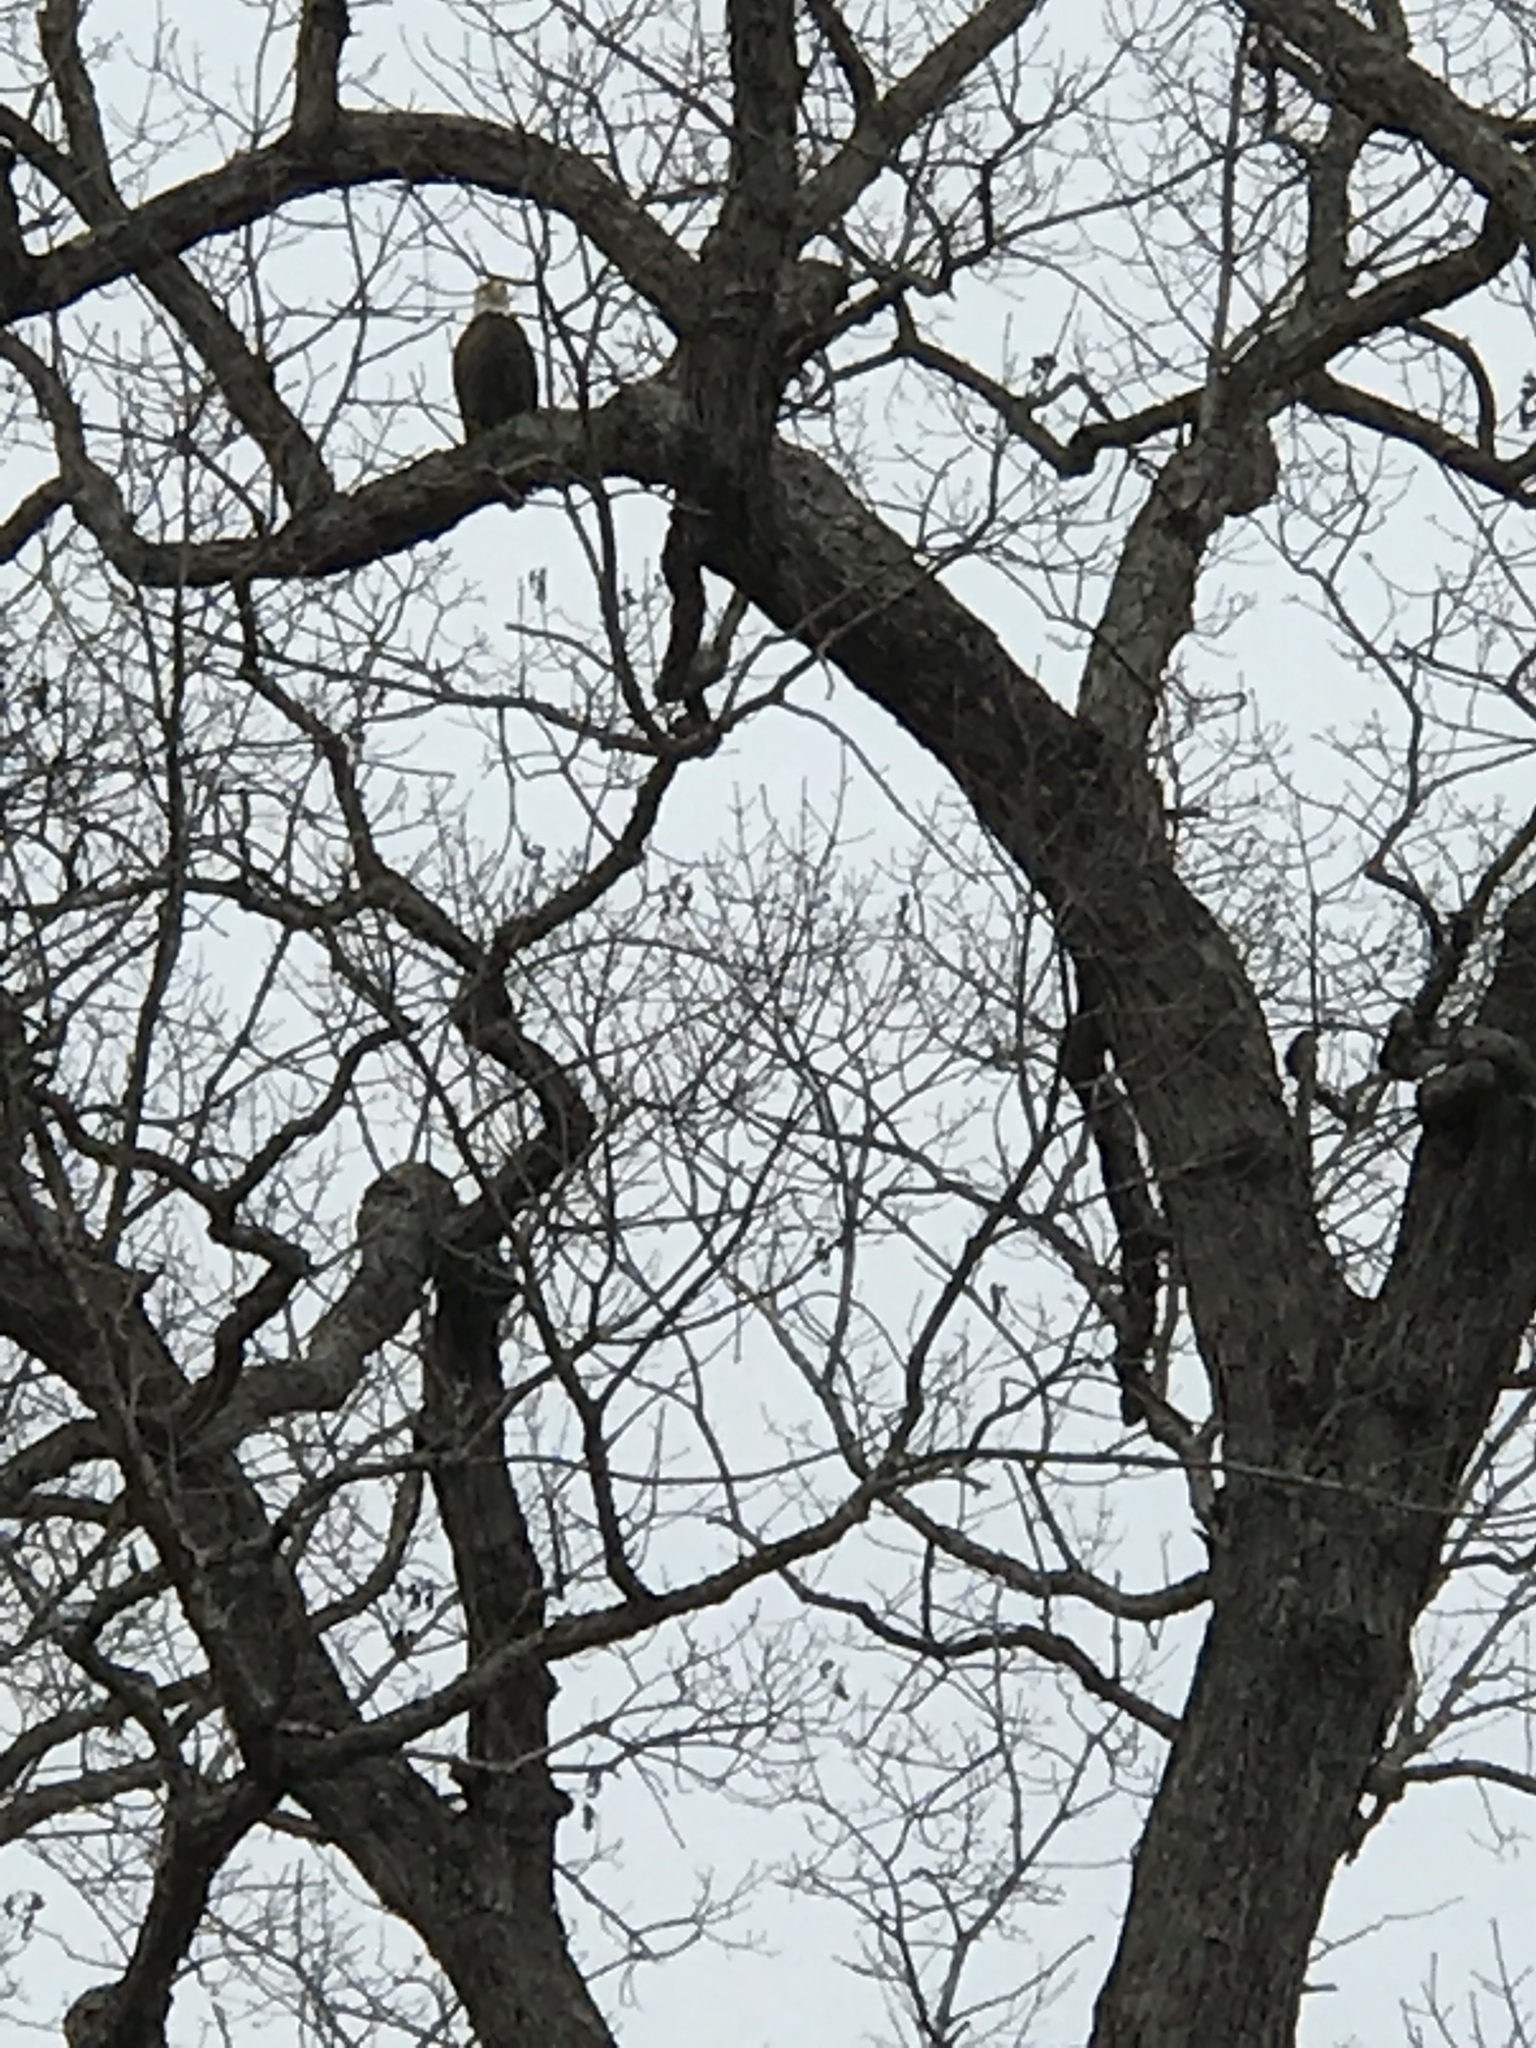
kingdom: Animalia
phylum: Chordata
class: Aves
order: Accipitriformes
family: Accipitridae
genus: Haliaeetus
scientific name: Haliaeetus leucocephalus
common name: Bald eagle
